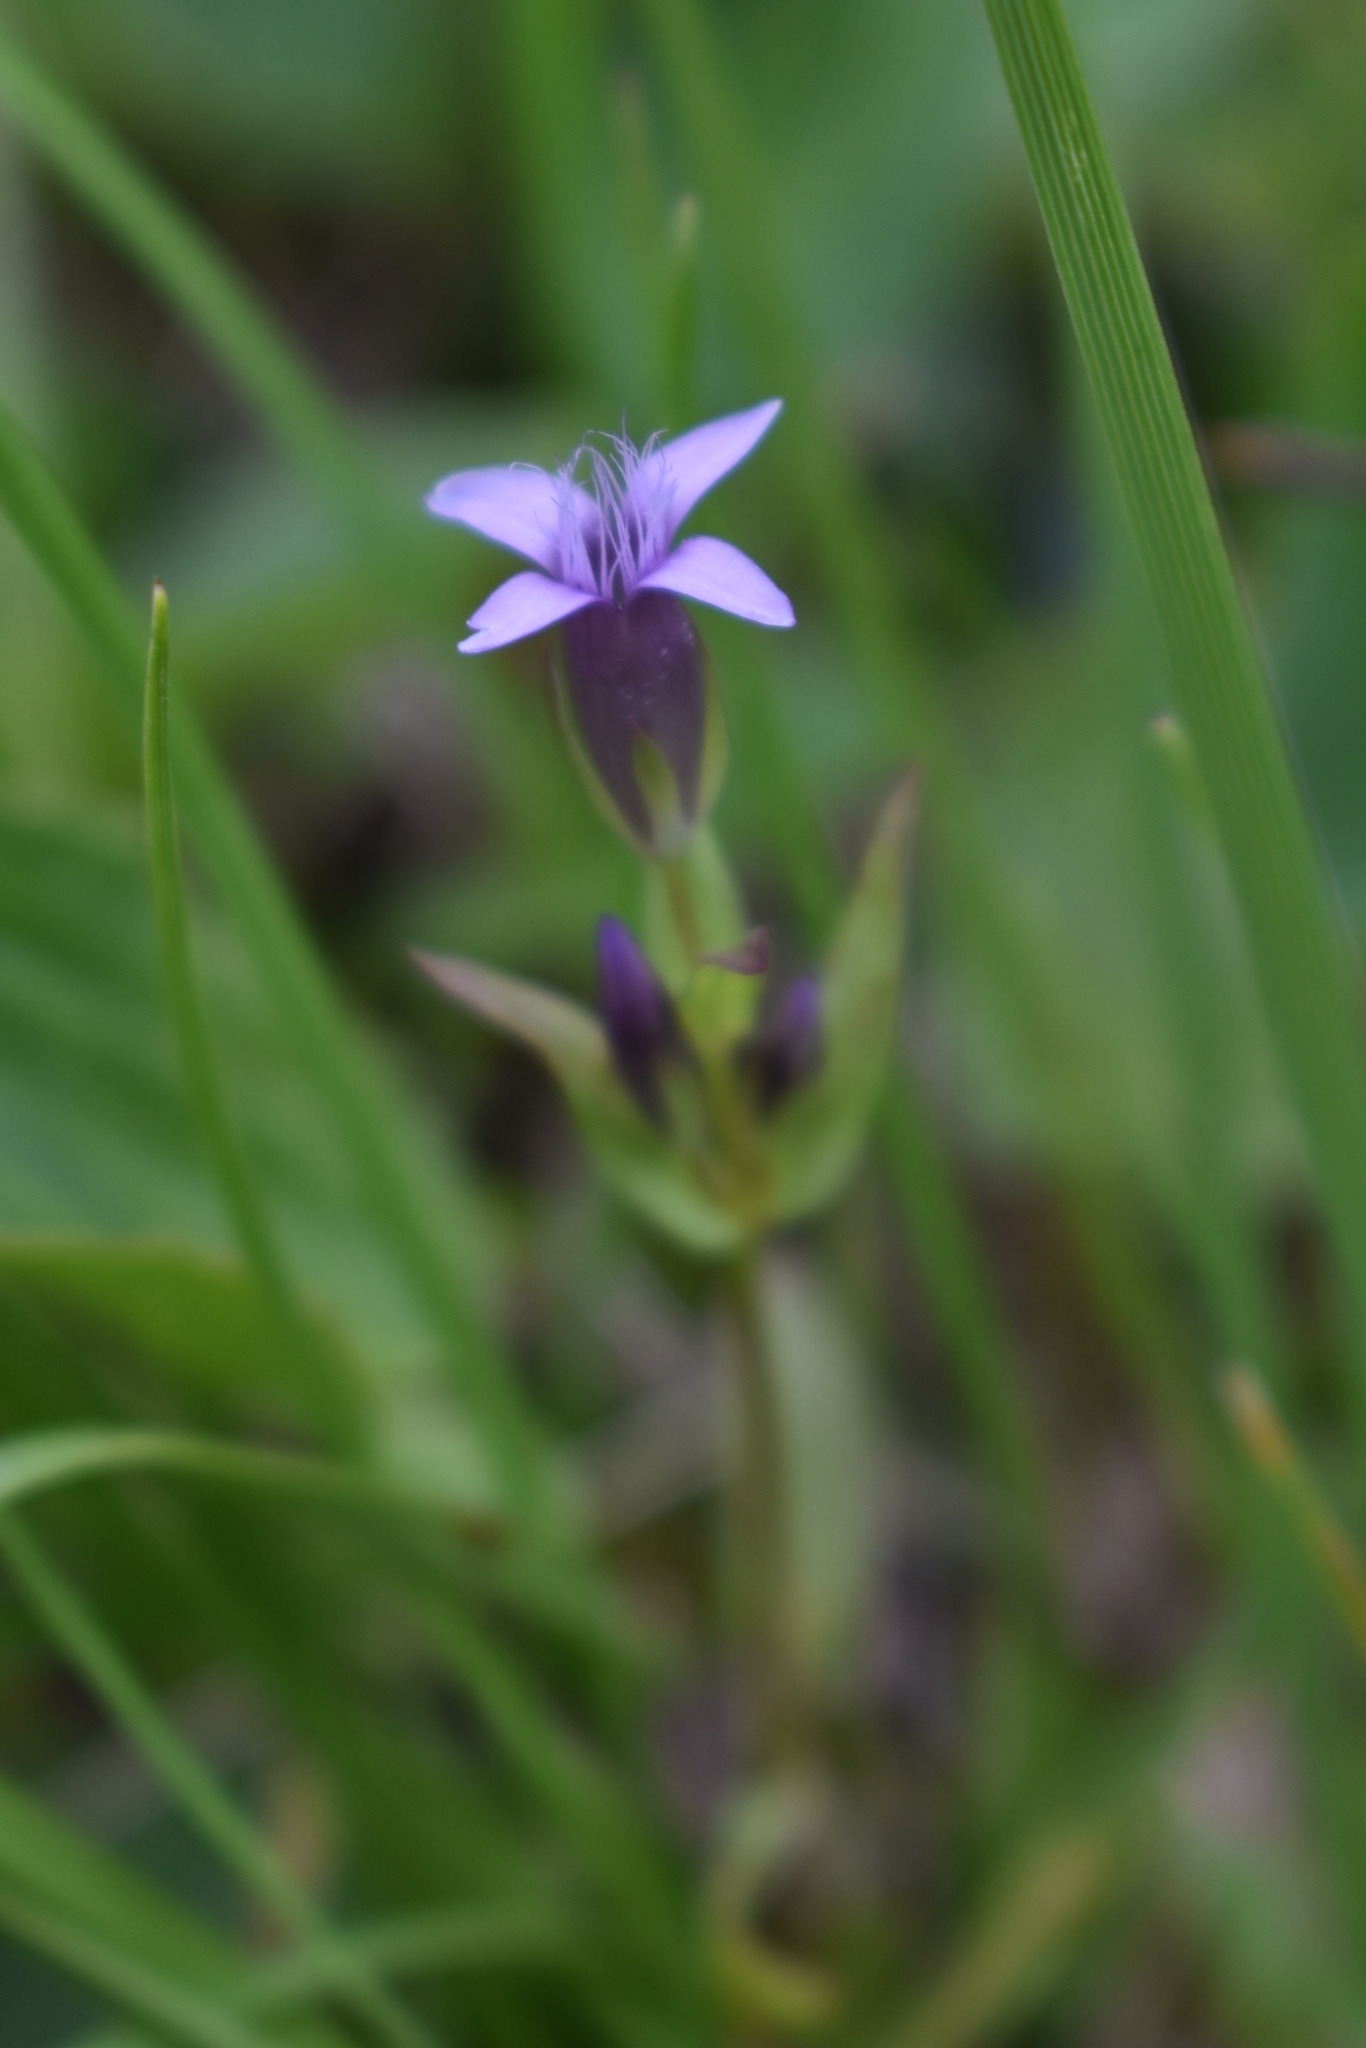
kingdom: Plantae
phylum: Tracheophyta
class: Magnoliopsida
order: Gentianales
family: Gentianaceae
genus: Gentianella
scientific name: Gentianella amarella
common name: Autumn gentian
